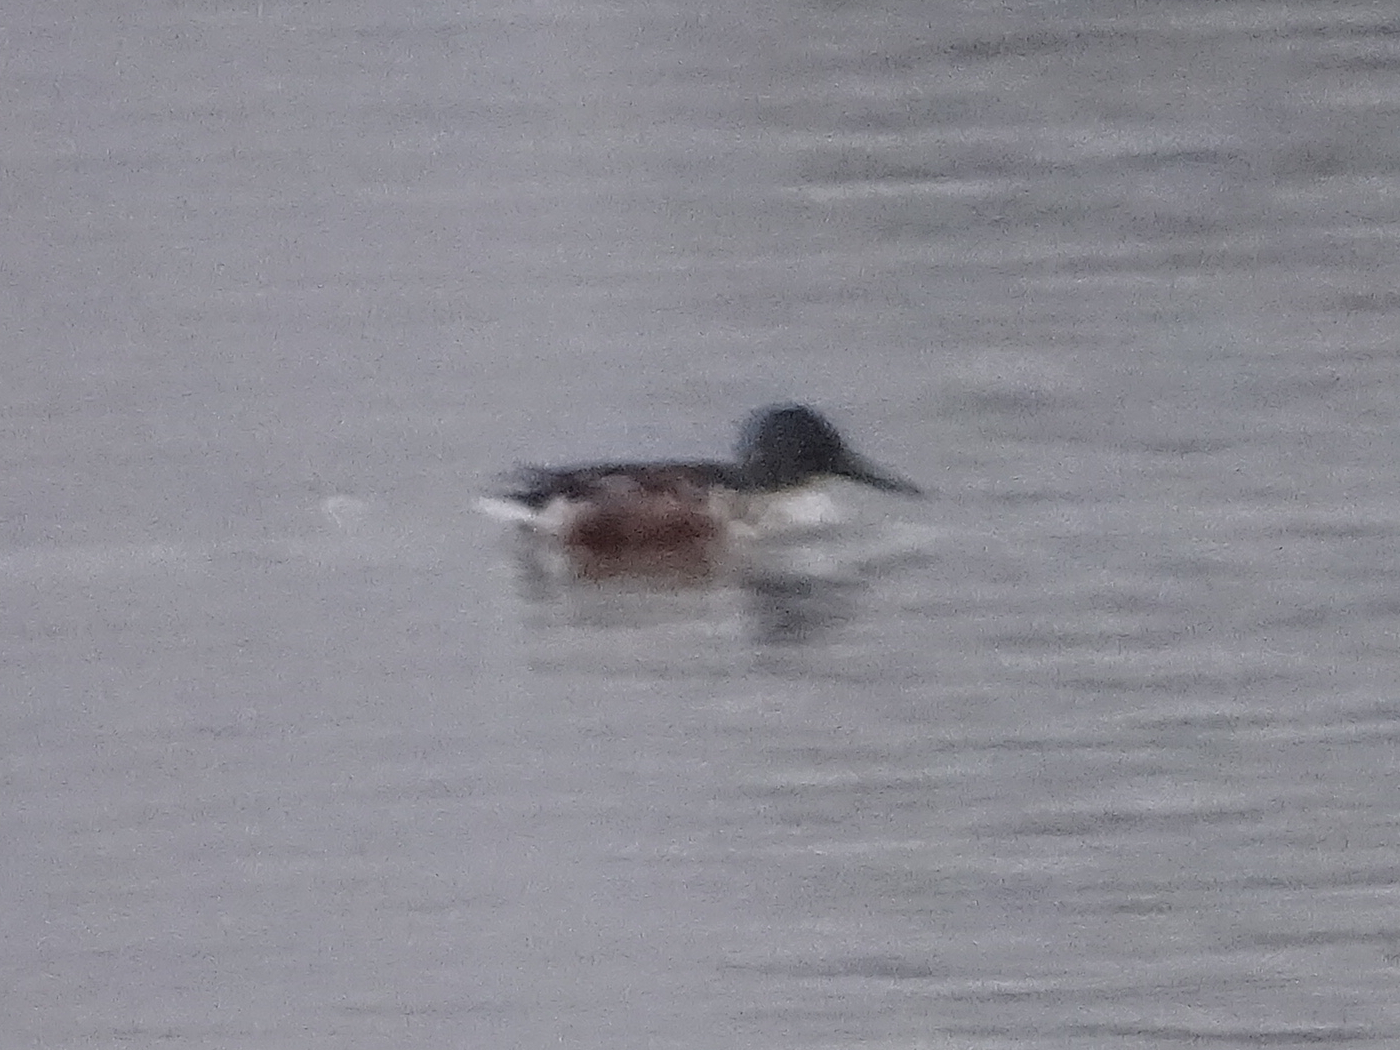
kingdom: Animalia
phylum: Chordata
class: Aves
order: Anseriformes
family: Anatidae
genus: Spatula
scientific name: Spatula clypeata
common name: Northern shoveler
